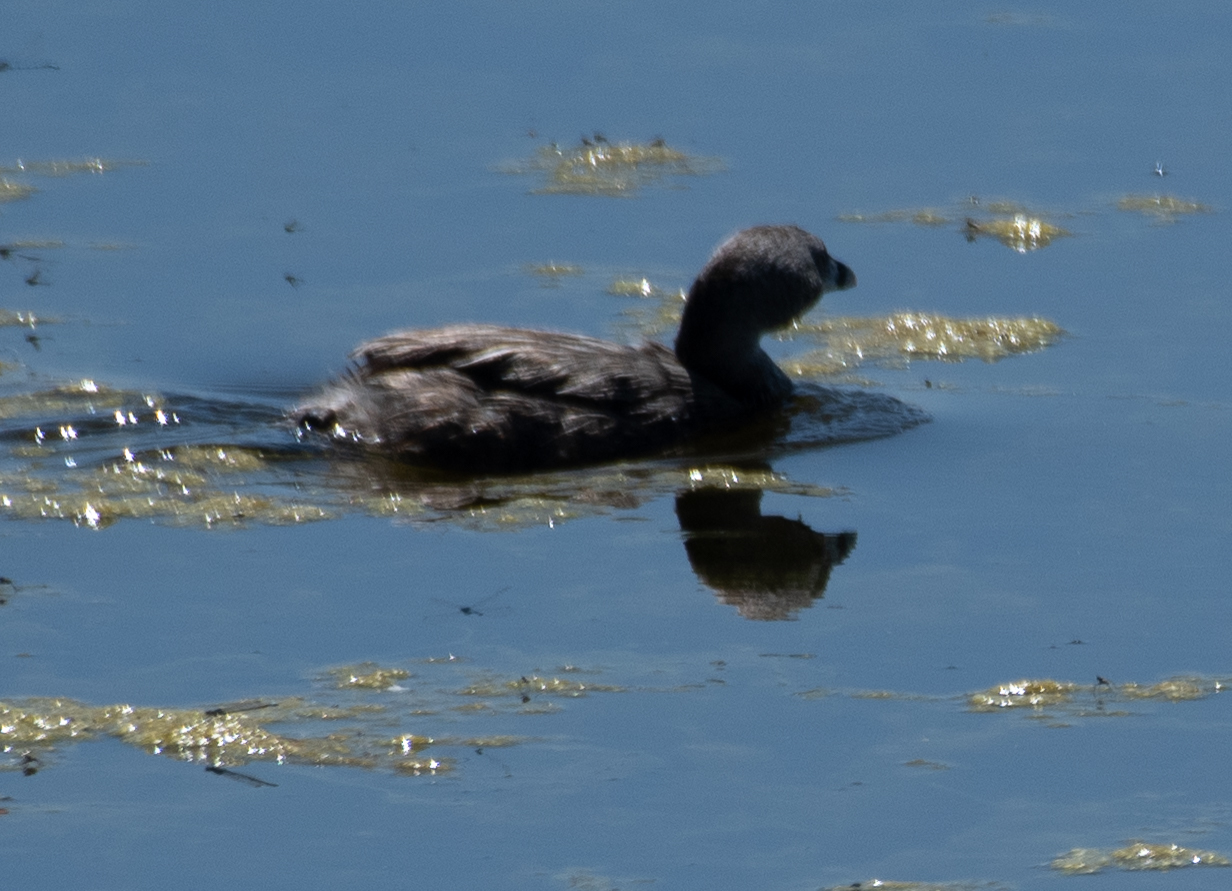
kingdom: Animalia
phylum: Chordata
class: Aves
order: Podicipediformes
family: Podicipedidae
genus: Podilymbus
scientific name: Podilymbus podiceps
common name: Pied-billed grebe
